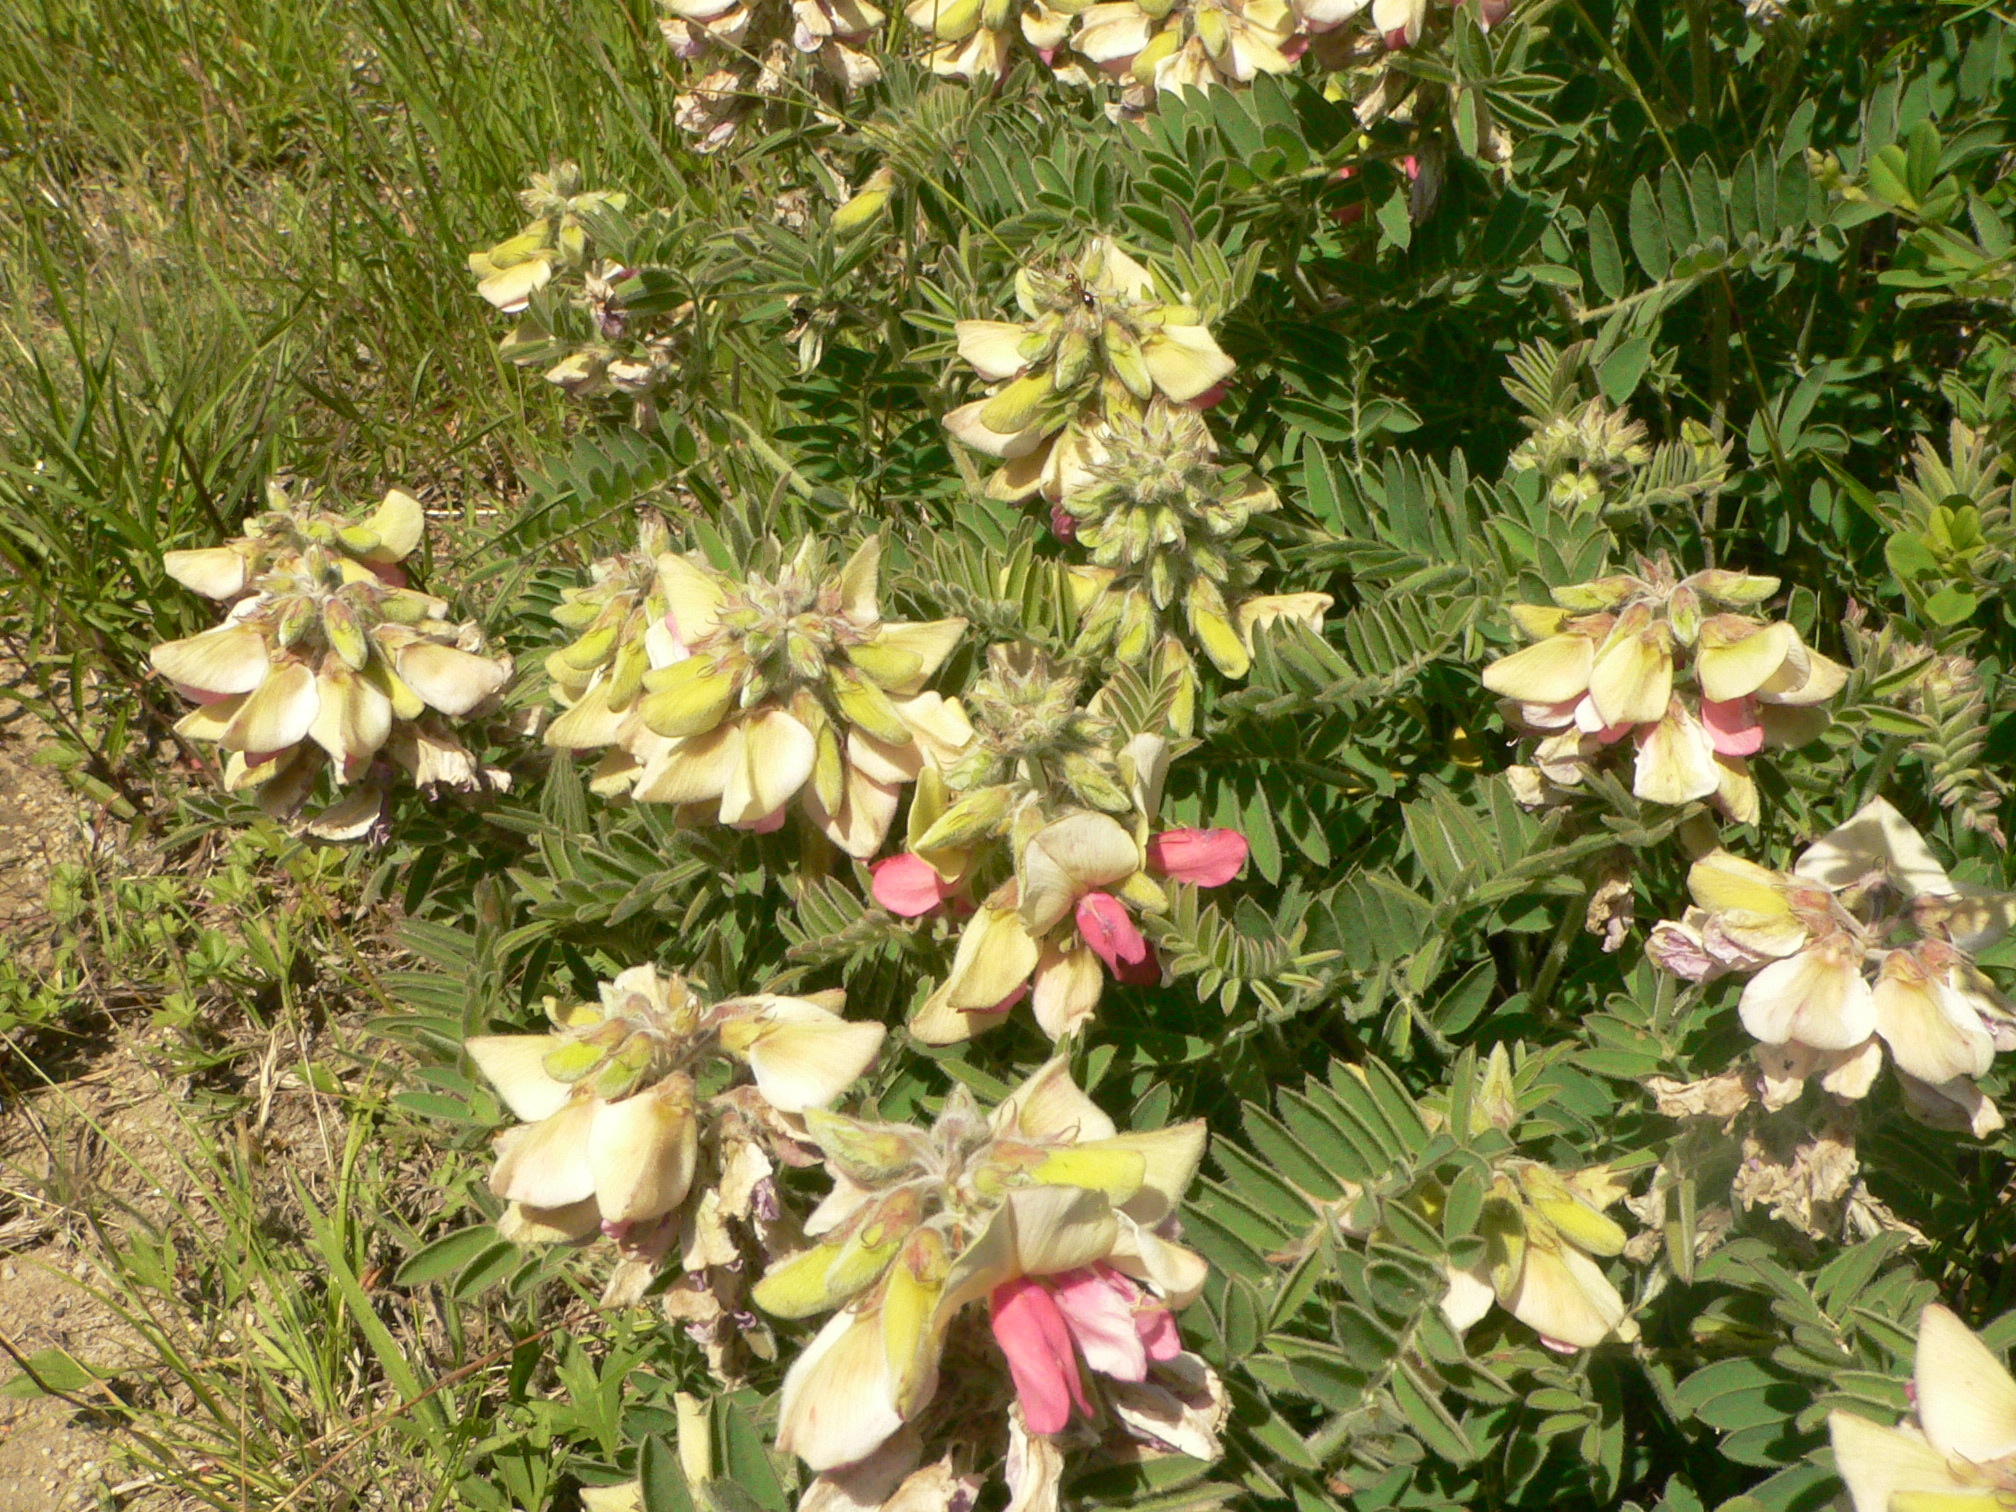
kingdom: Plantae
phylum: Tracheophyta
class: Magnoliopsida
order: Fabales
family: Fabaceae
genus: Tephrosia
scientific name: Tephrosia virginiana
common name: Rabbit-pea
